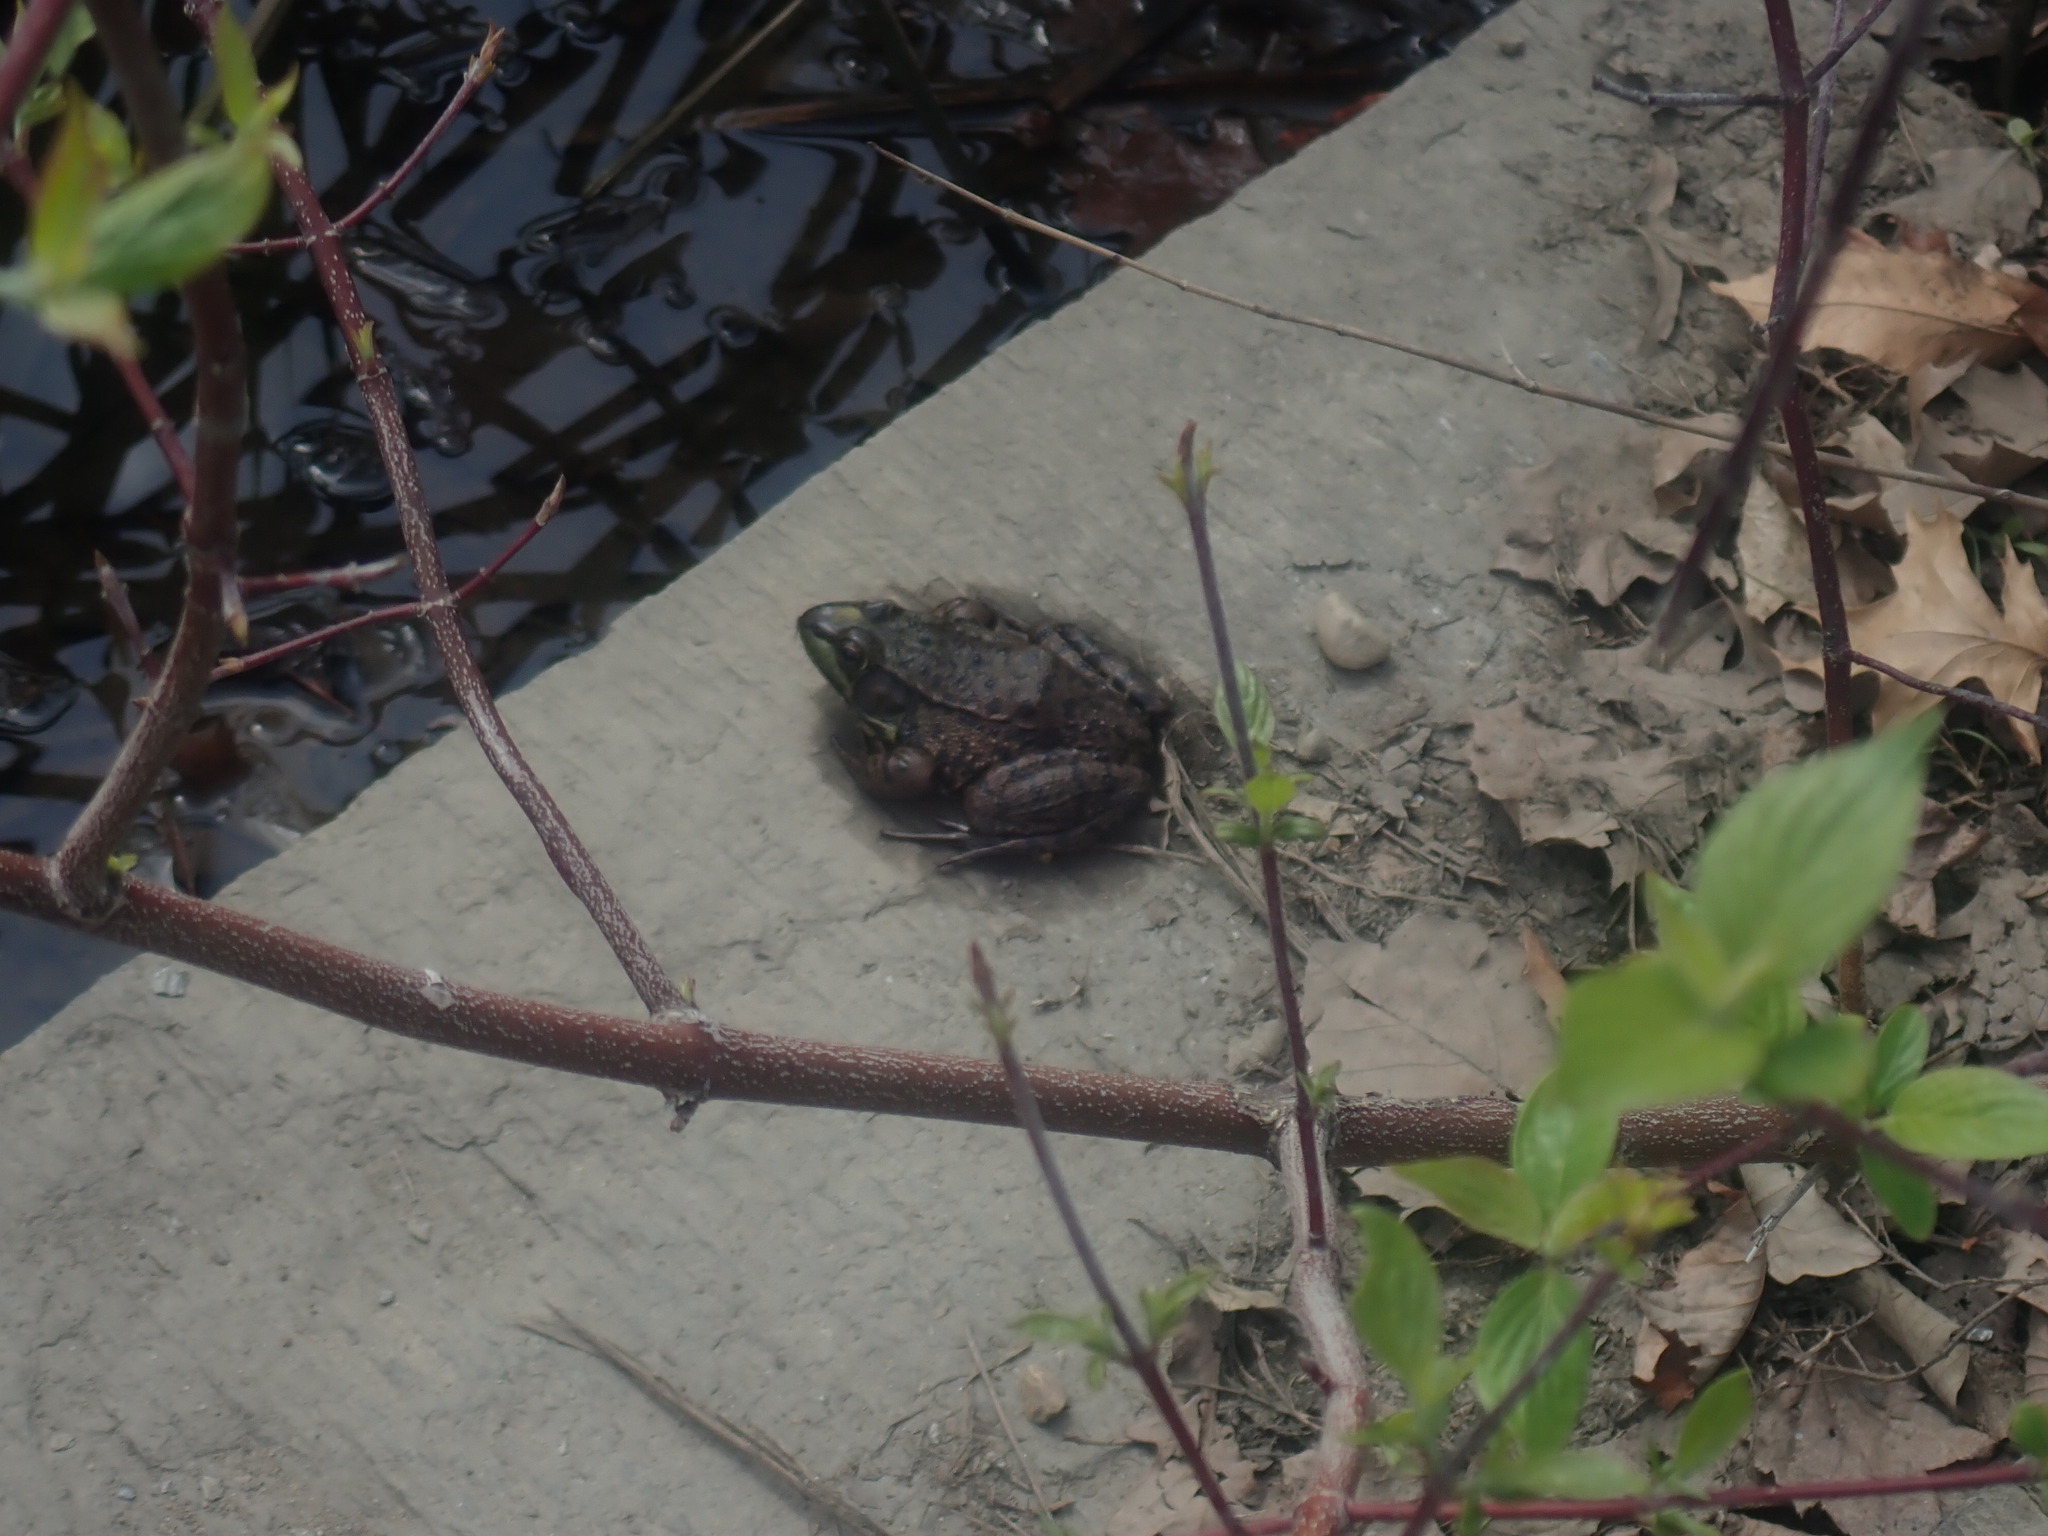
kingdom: Animalia
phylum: Chordata
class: Amphibia
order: Anura
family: Ranidae
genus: Lithobates
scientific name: Lithobates clamitans
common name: Green frog
